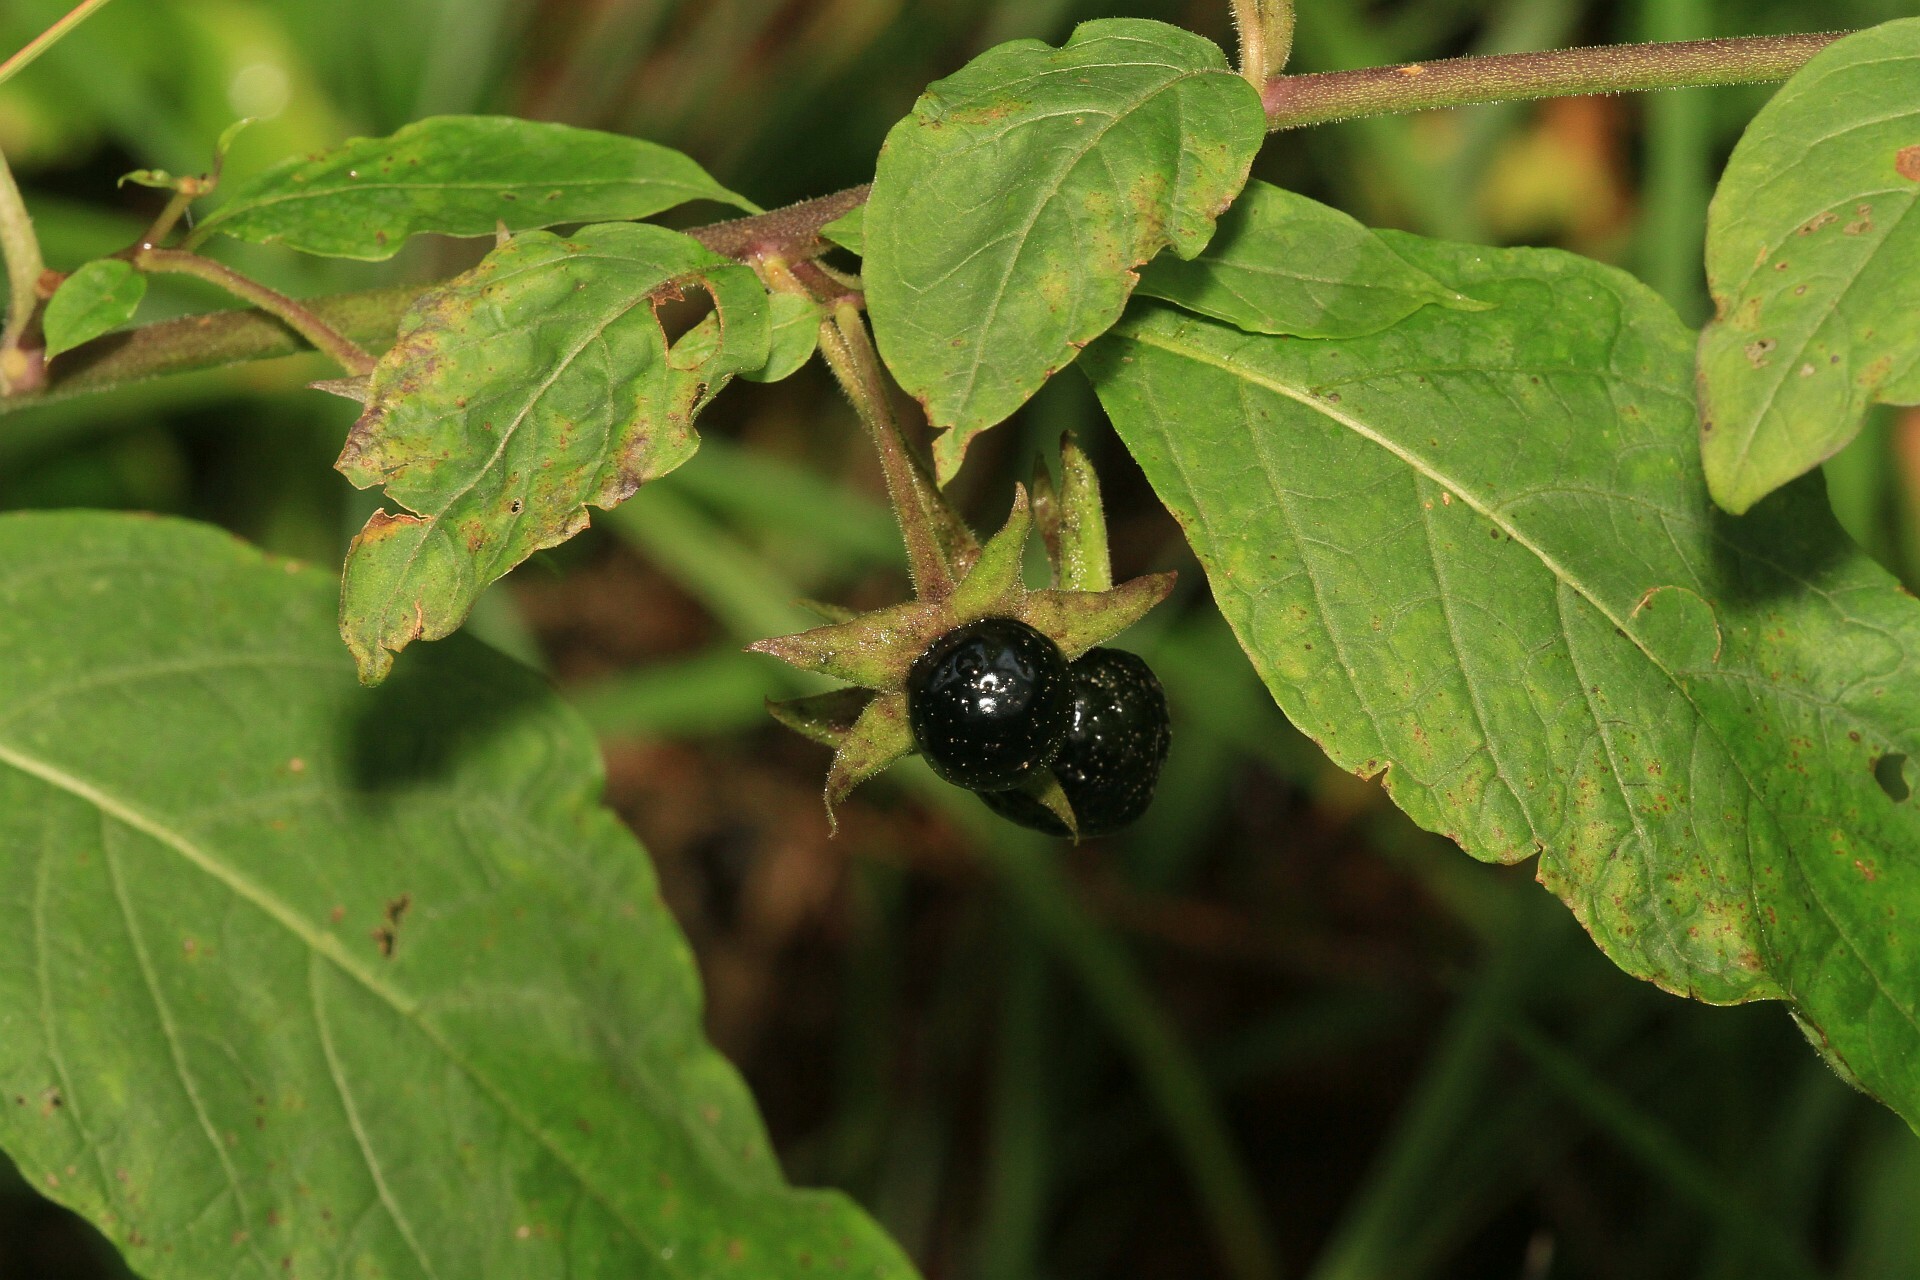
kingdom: Plantae
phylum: Tracheophyta
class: Magnoliopsida
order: Solanales
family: Solanaceae
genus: Atropa
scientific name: Atropa belladonna
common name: Deadly nightshade
